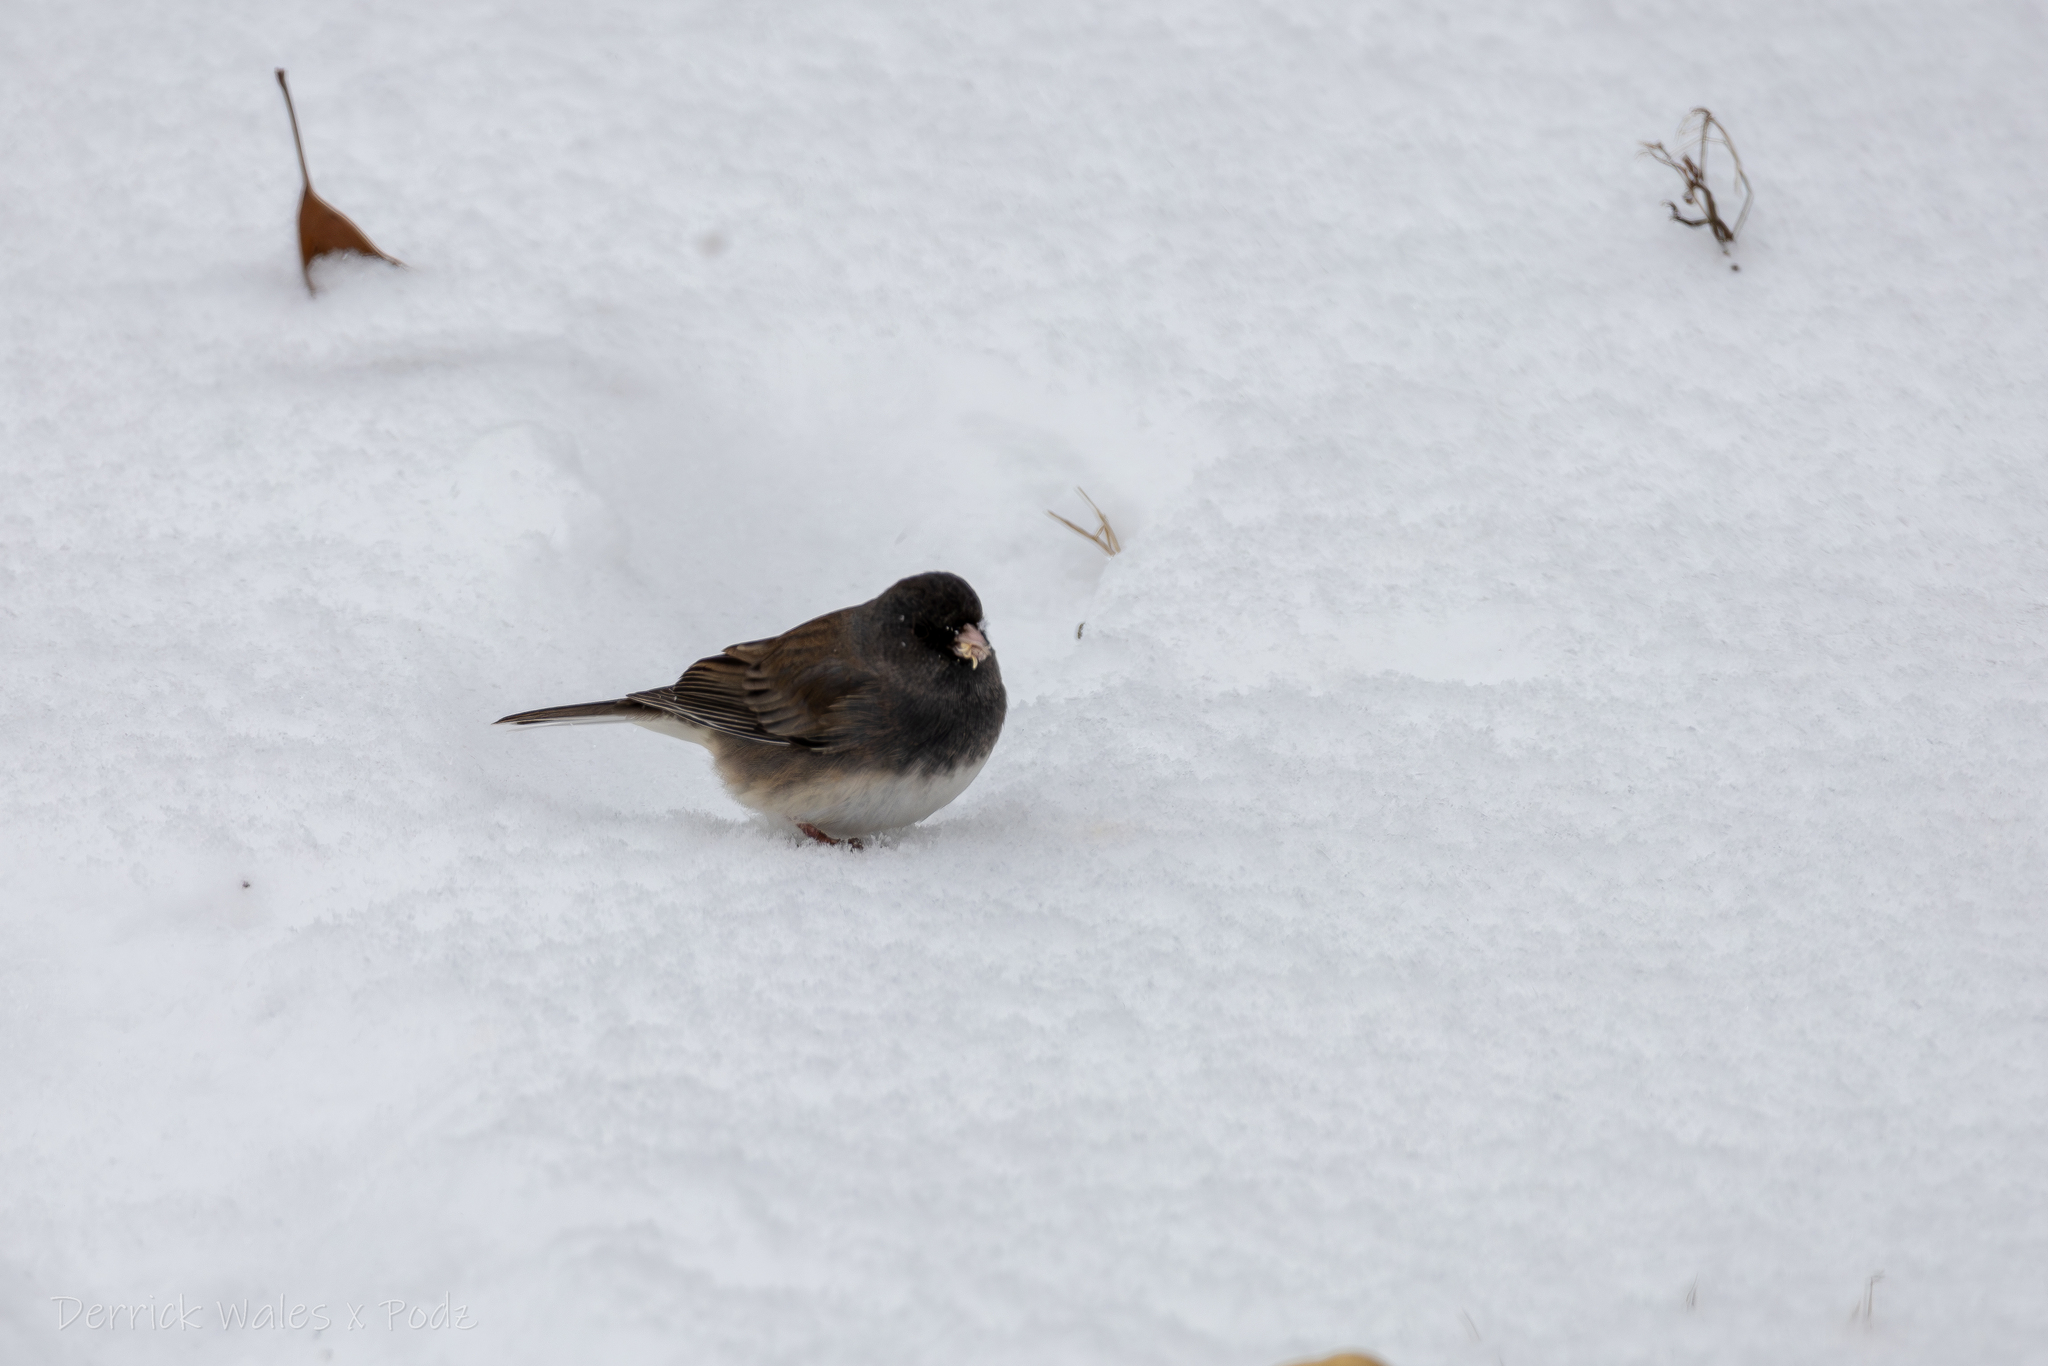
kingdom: Animalia
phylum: Chordata
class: Aves
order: Passeriformes
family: Passerellidae
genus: Junco
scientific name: Junco hyemalis
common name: Dark-eyed junco
